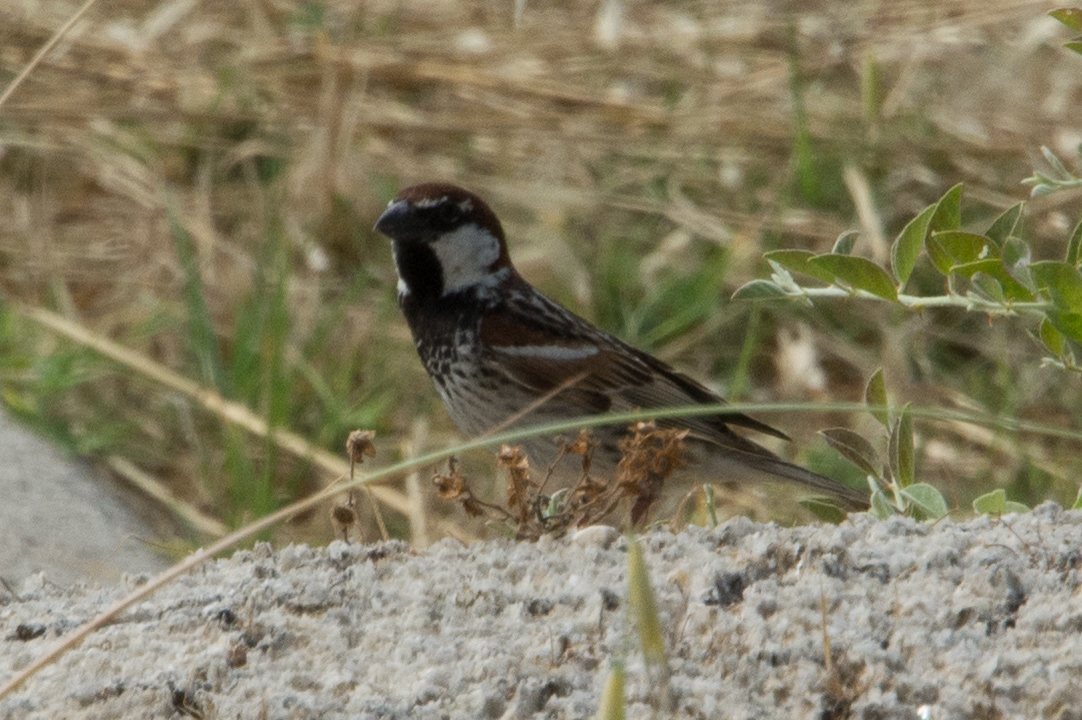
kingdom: Animalia
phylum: Chordata
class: Aves
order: Passeriformes
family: Passeridae
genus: Passer
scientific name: Passer hispaniolensis
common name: Spanish sparrow
